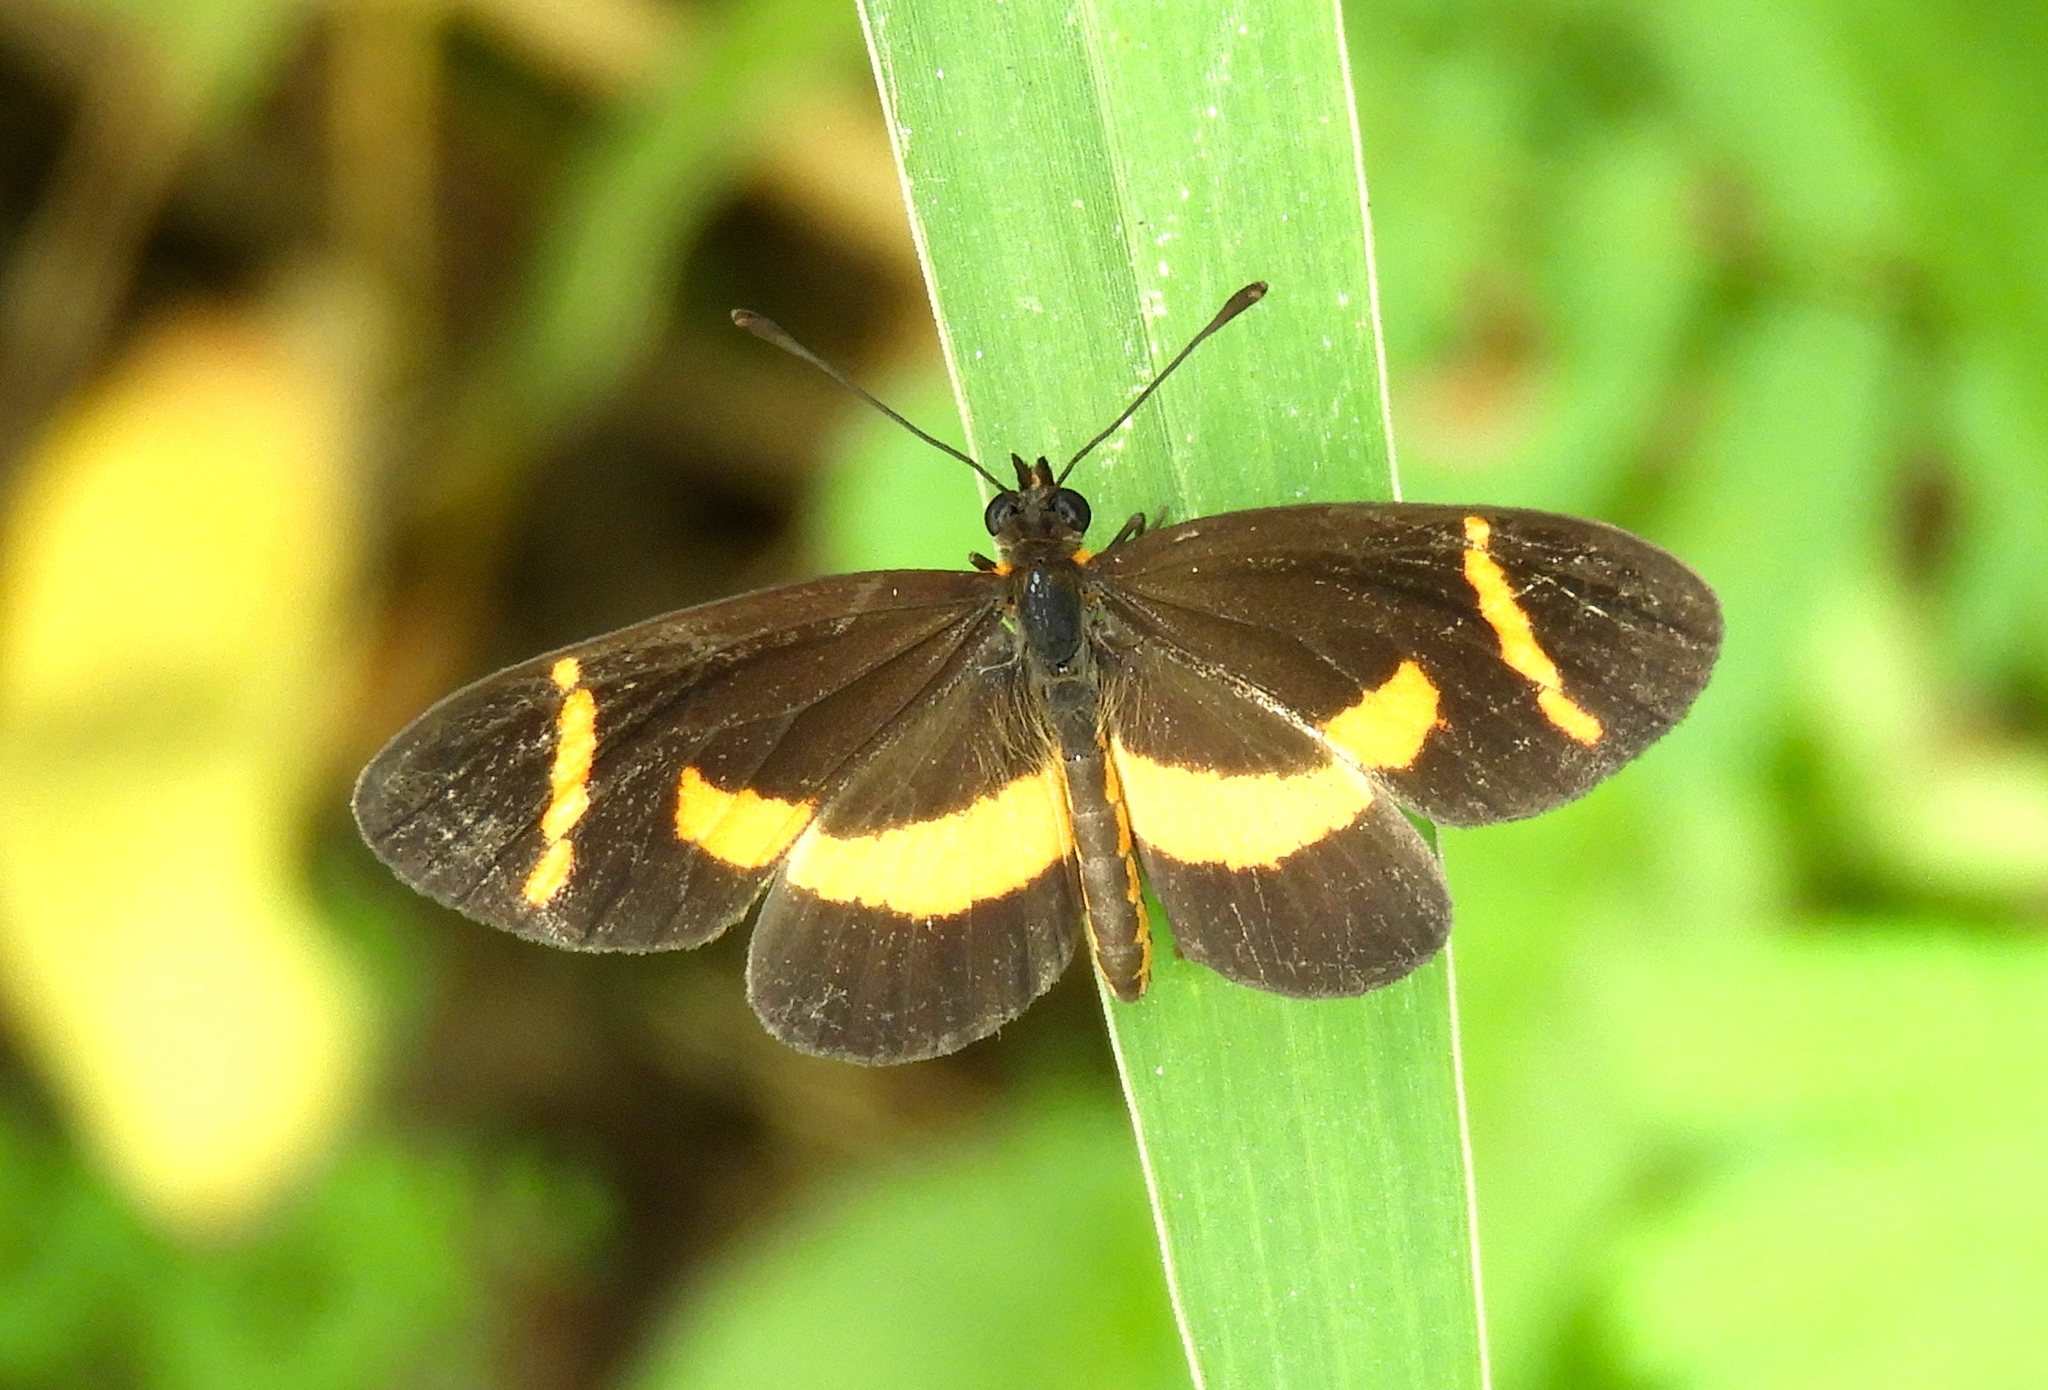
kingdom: Animalia
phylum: Arthropoda
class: Insecta
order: Lepidoptera
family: Nymphalidae
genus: Microtia
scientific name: Microtia elva
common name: Elf
